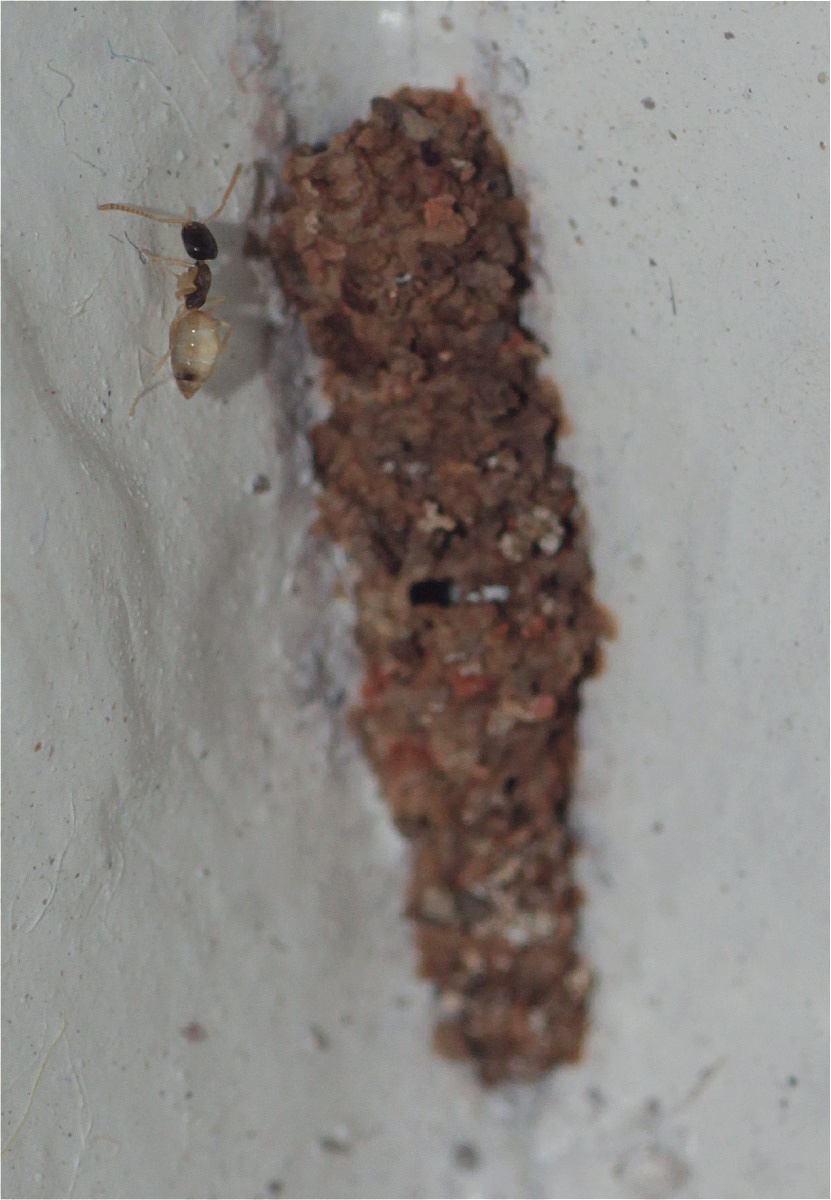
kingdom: Animalia
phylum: Arthropoda
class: Insecta
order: Hymenoptera
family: Formicidae
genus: Tapinoma
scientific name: Tapinoma melanocephalum
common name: Ghost ant
